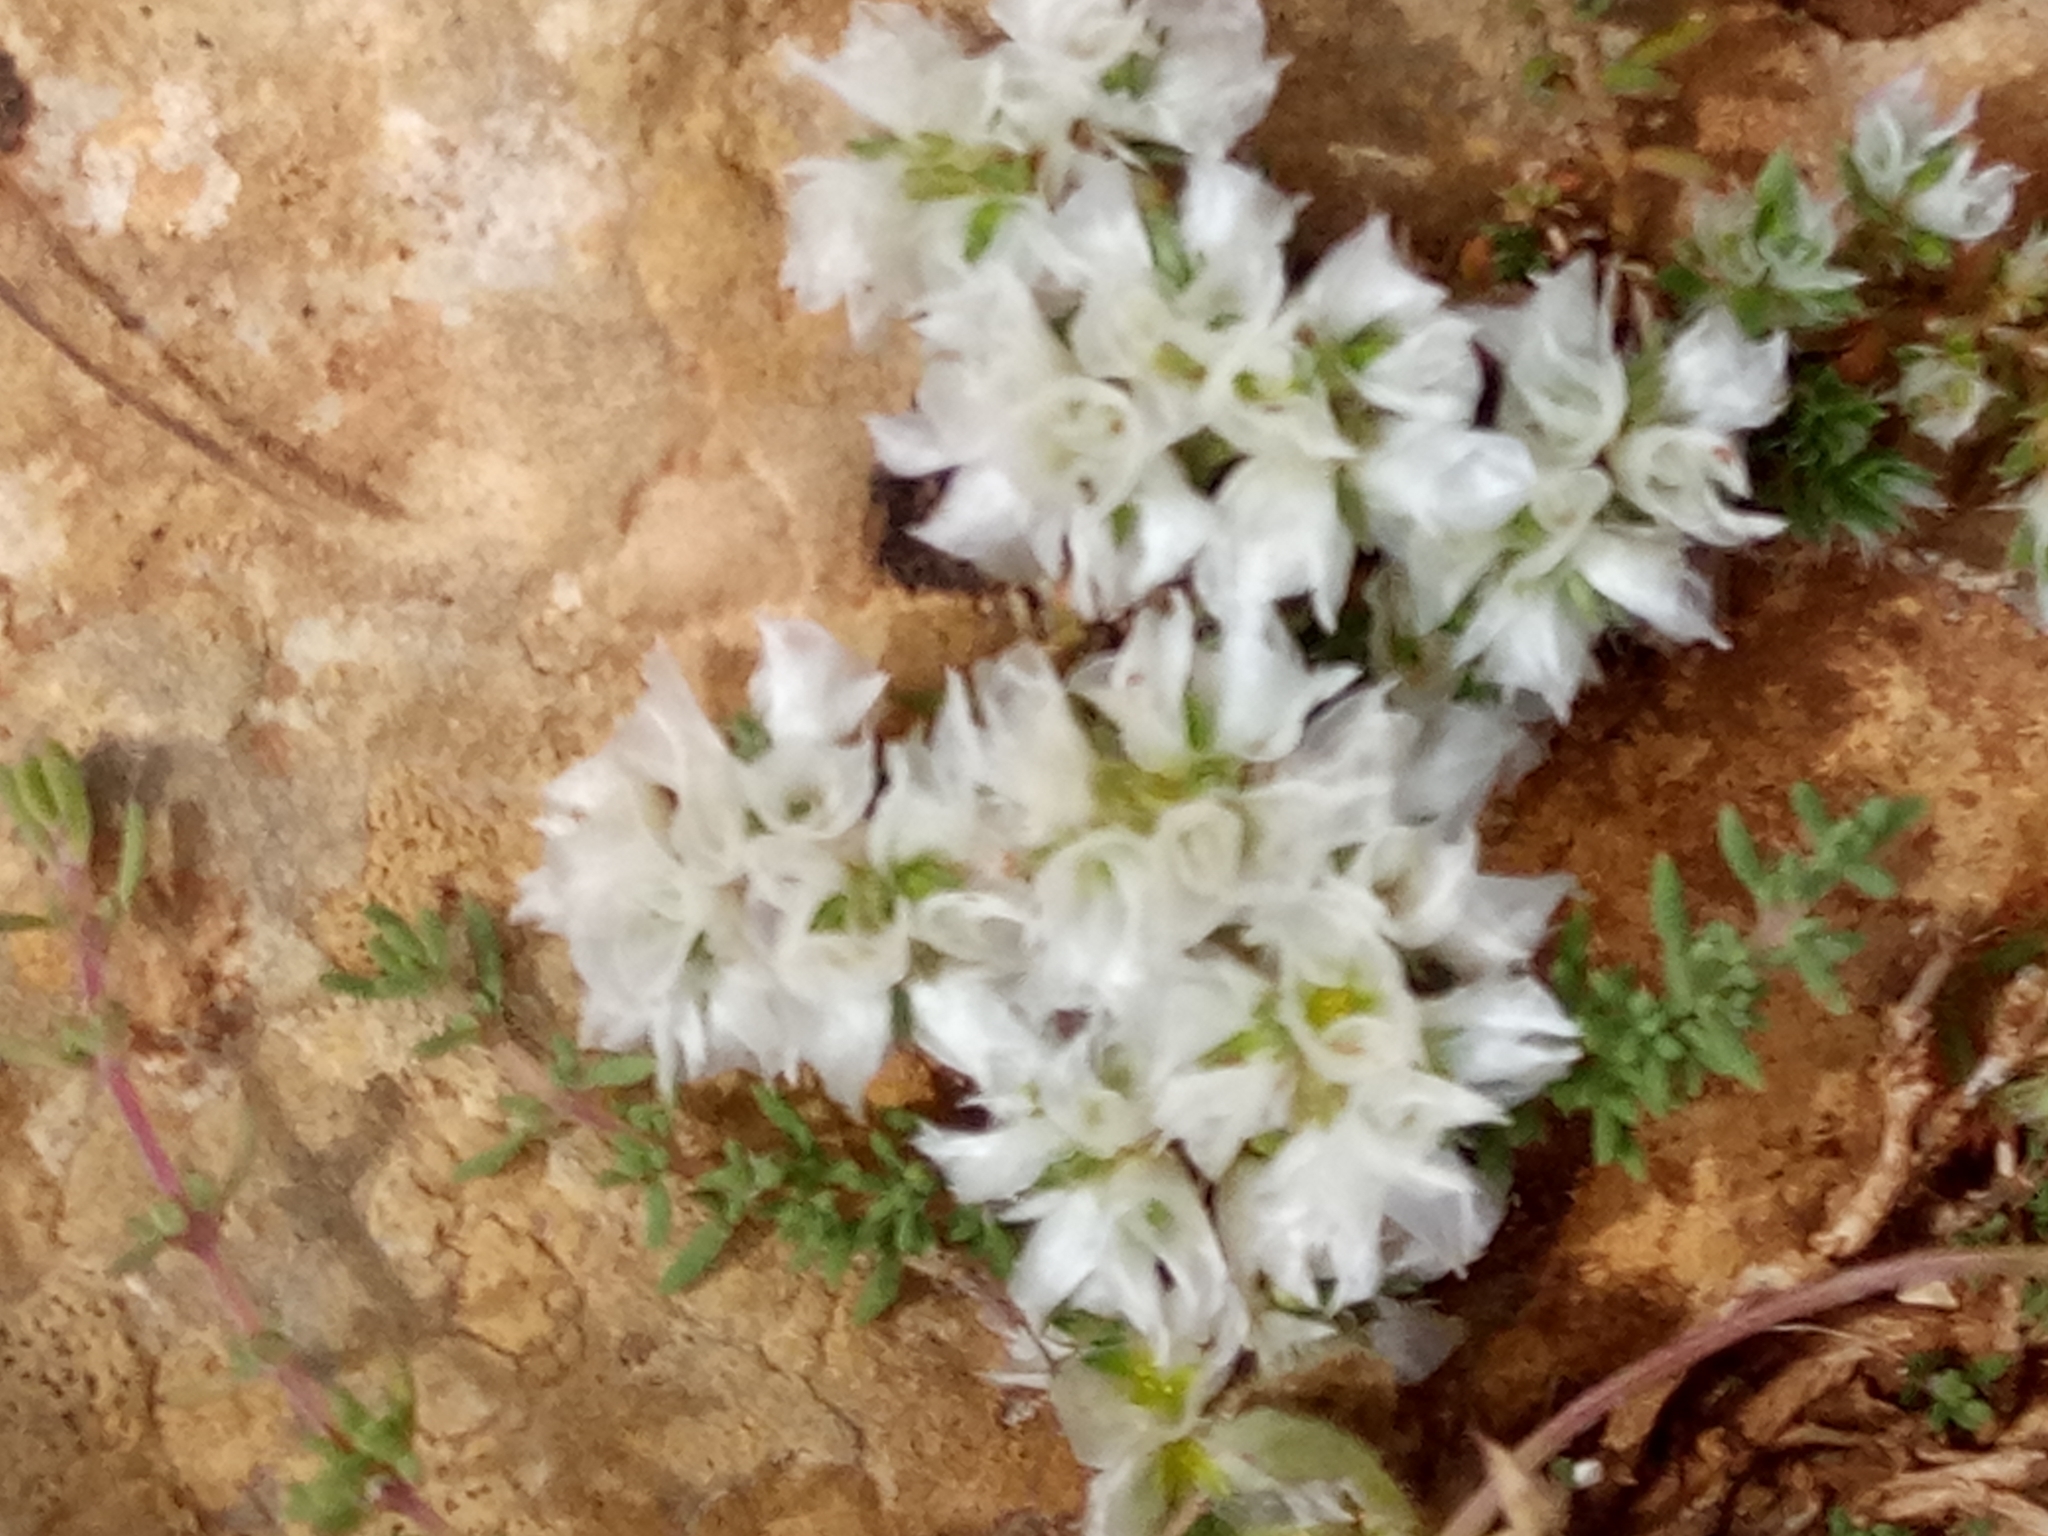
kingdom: Plantae
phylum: Tracheophyta
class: Magnoliopsida
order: Caryophyllales
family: Caryophyllaceae
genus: Paronychia
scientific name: Paronychia argentea
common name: Silver nailroot
